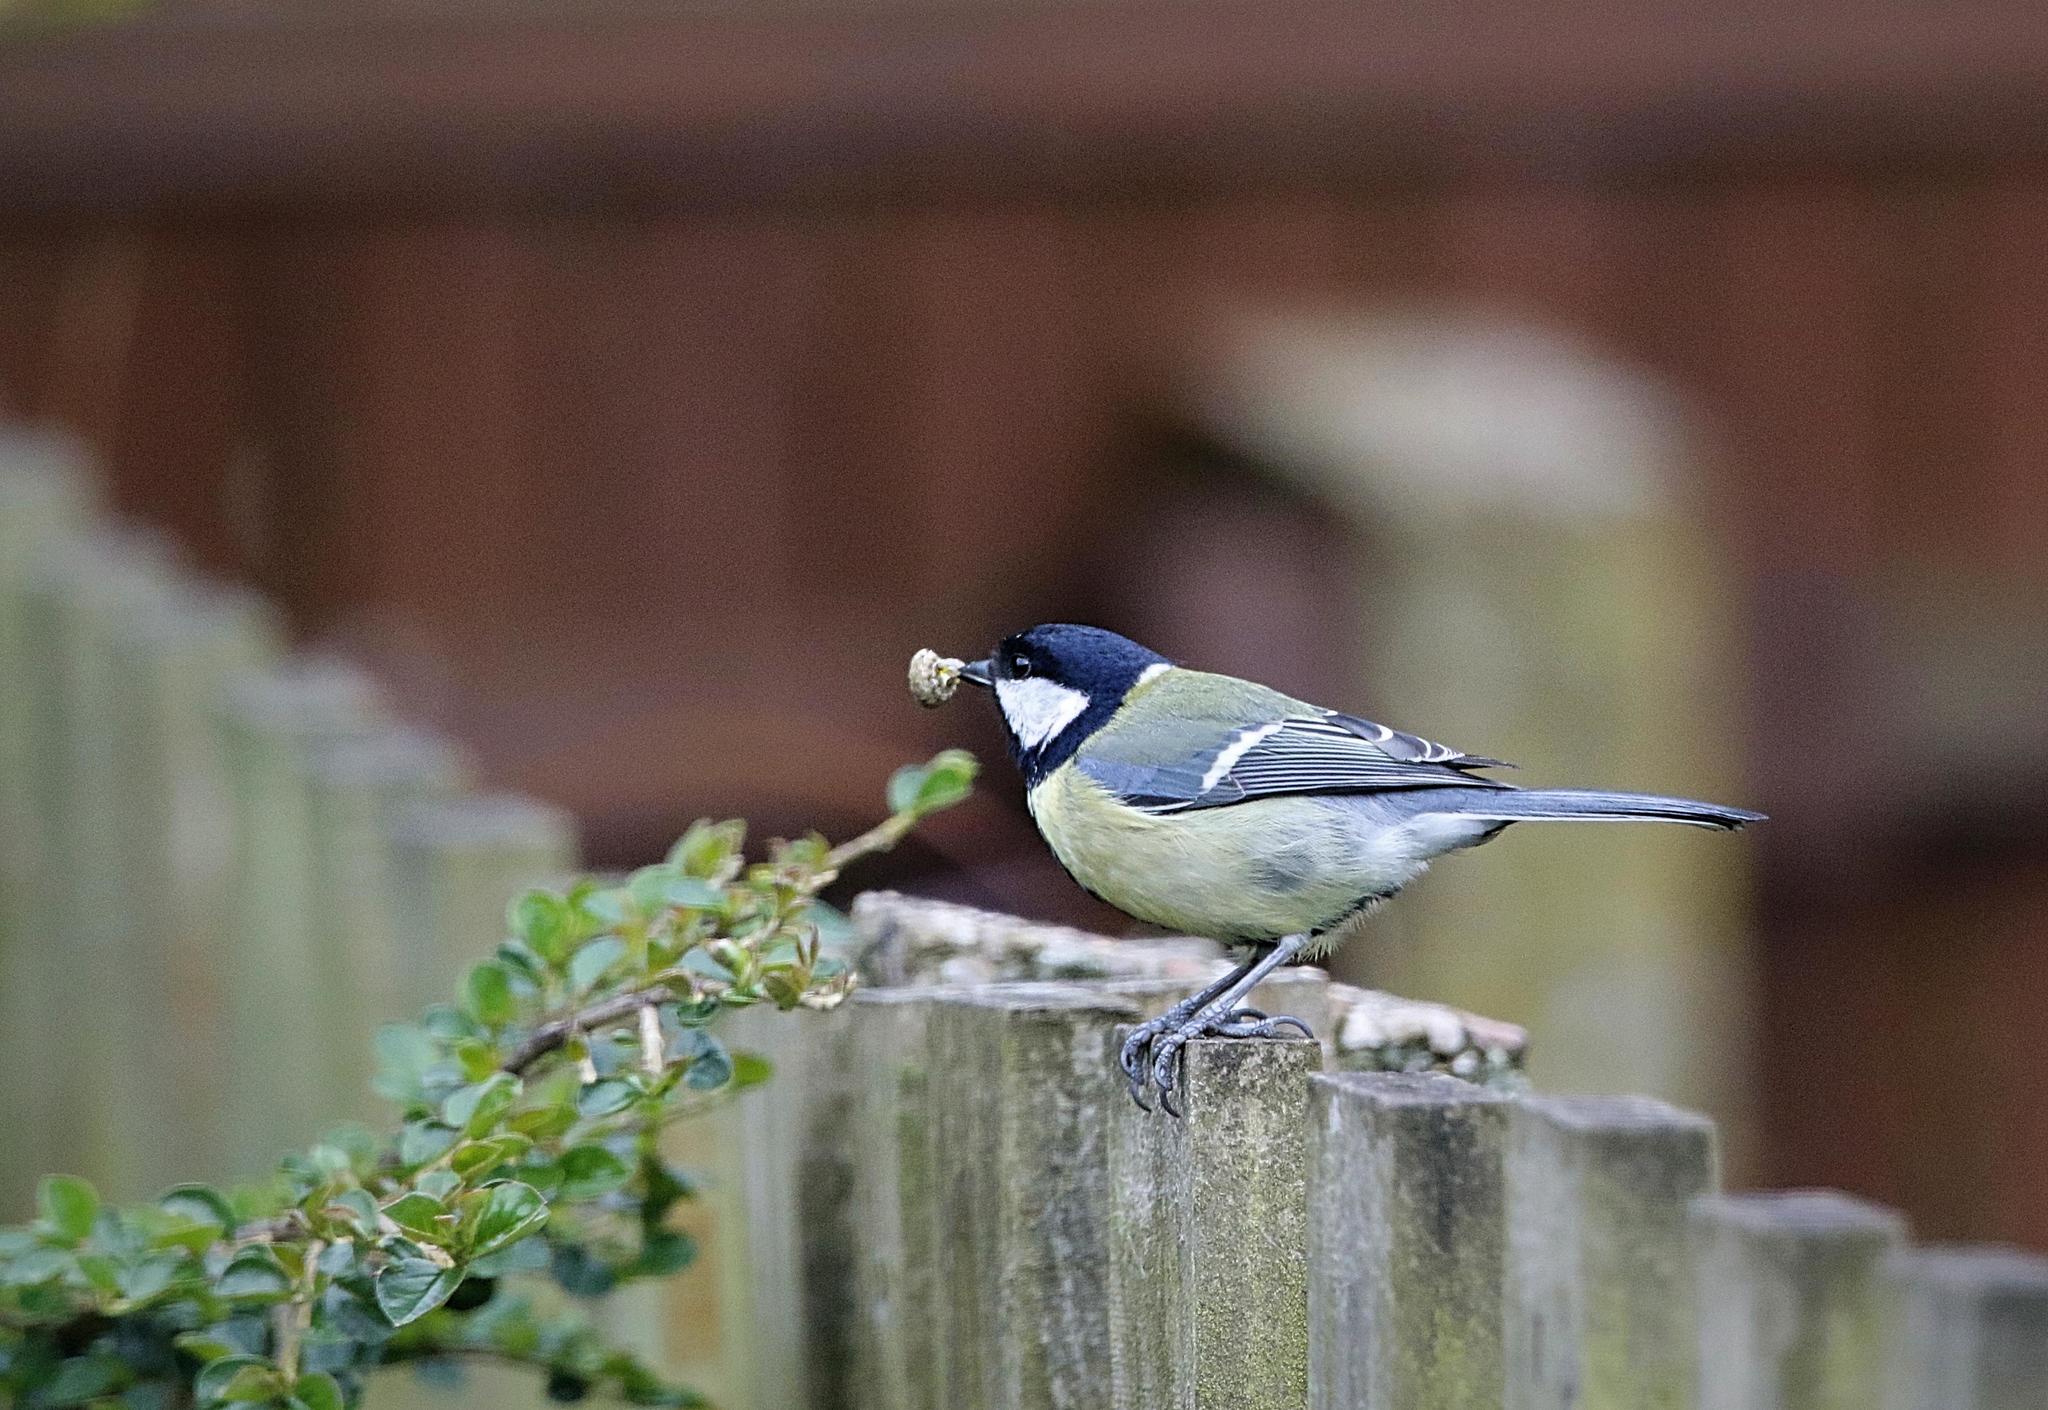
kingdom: Animalia
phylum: Chordata
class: Aves
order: Passeriformes
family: Paridae
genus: Parus
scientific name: Parus major
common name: Great tit
